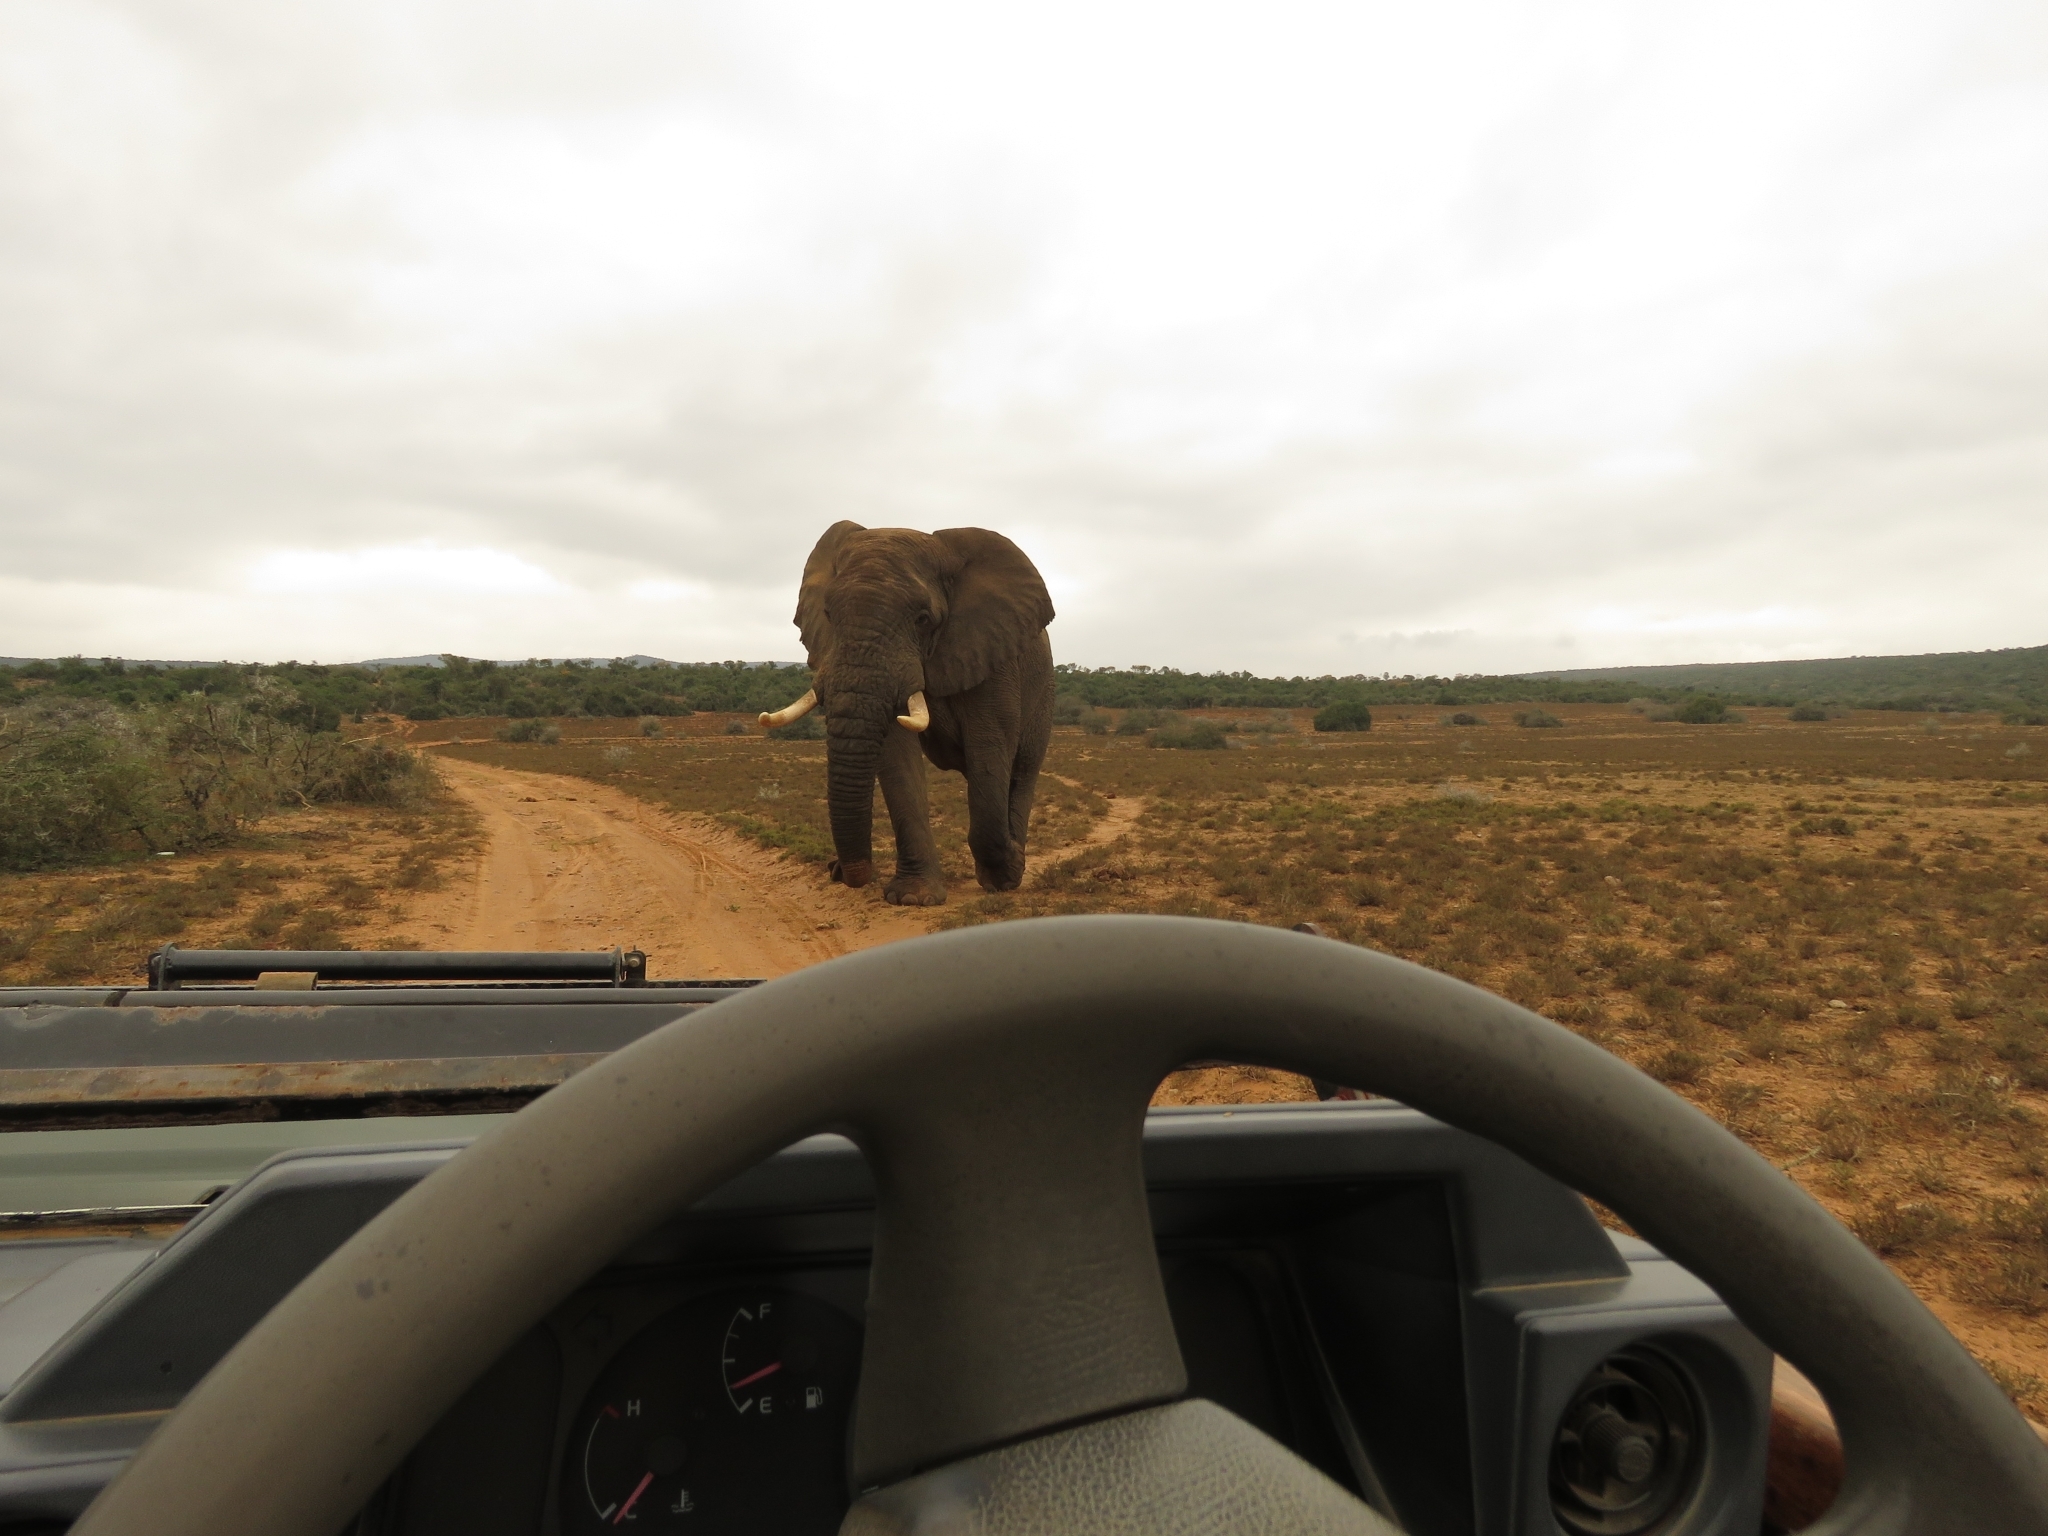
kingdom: Animalia
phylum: Chordata
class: Mammalia
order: Proboscidea
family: Elephantidae
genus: Loxodonta
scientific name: Loxodonta africana
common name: African elephant
